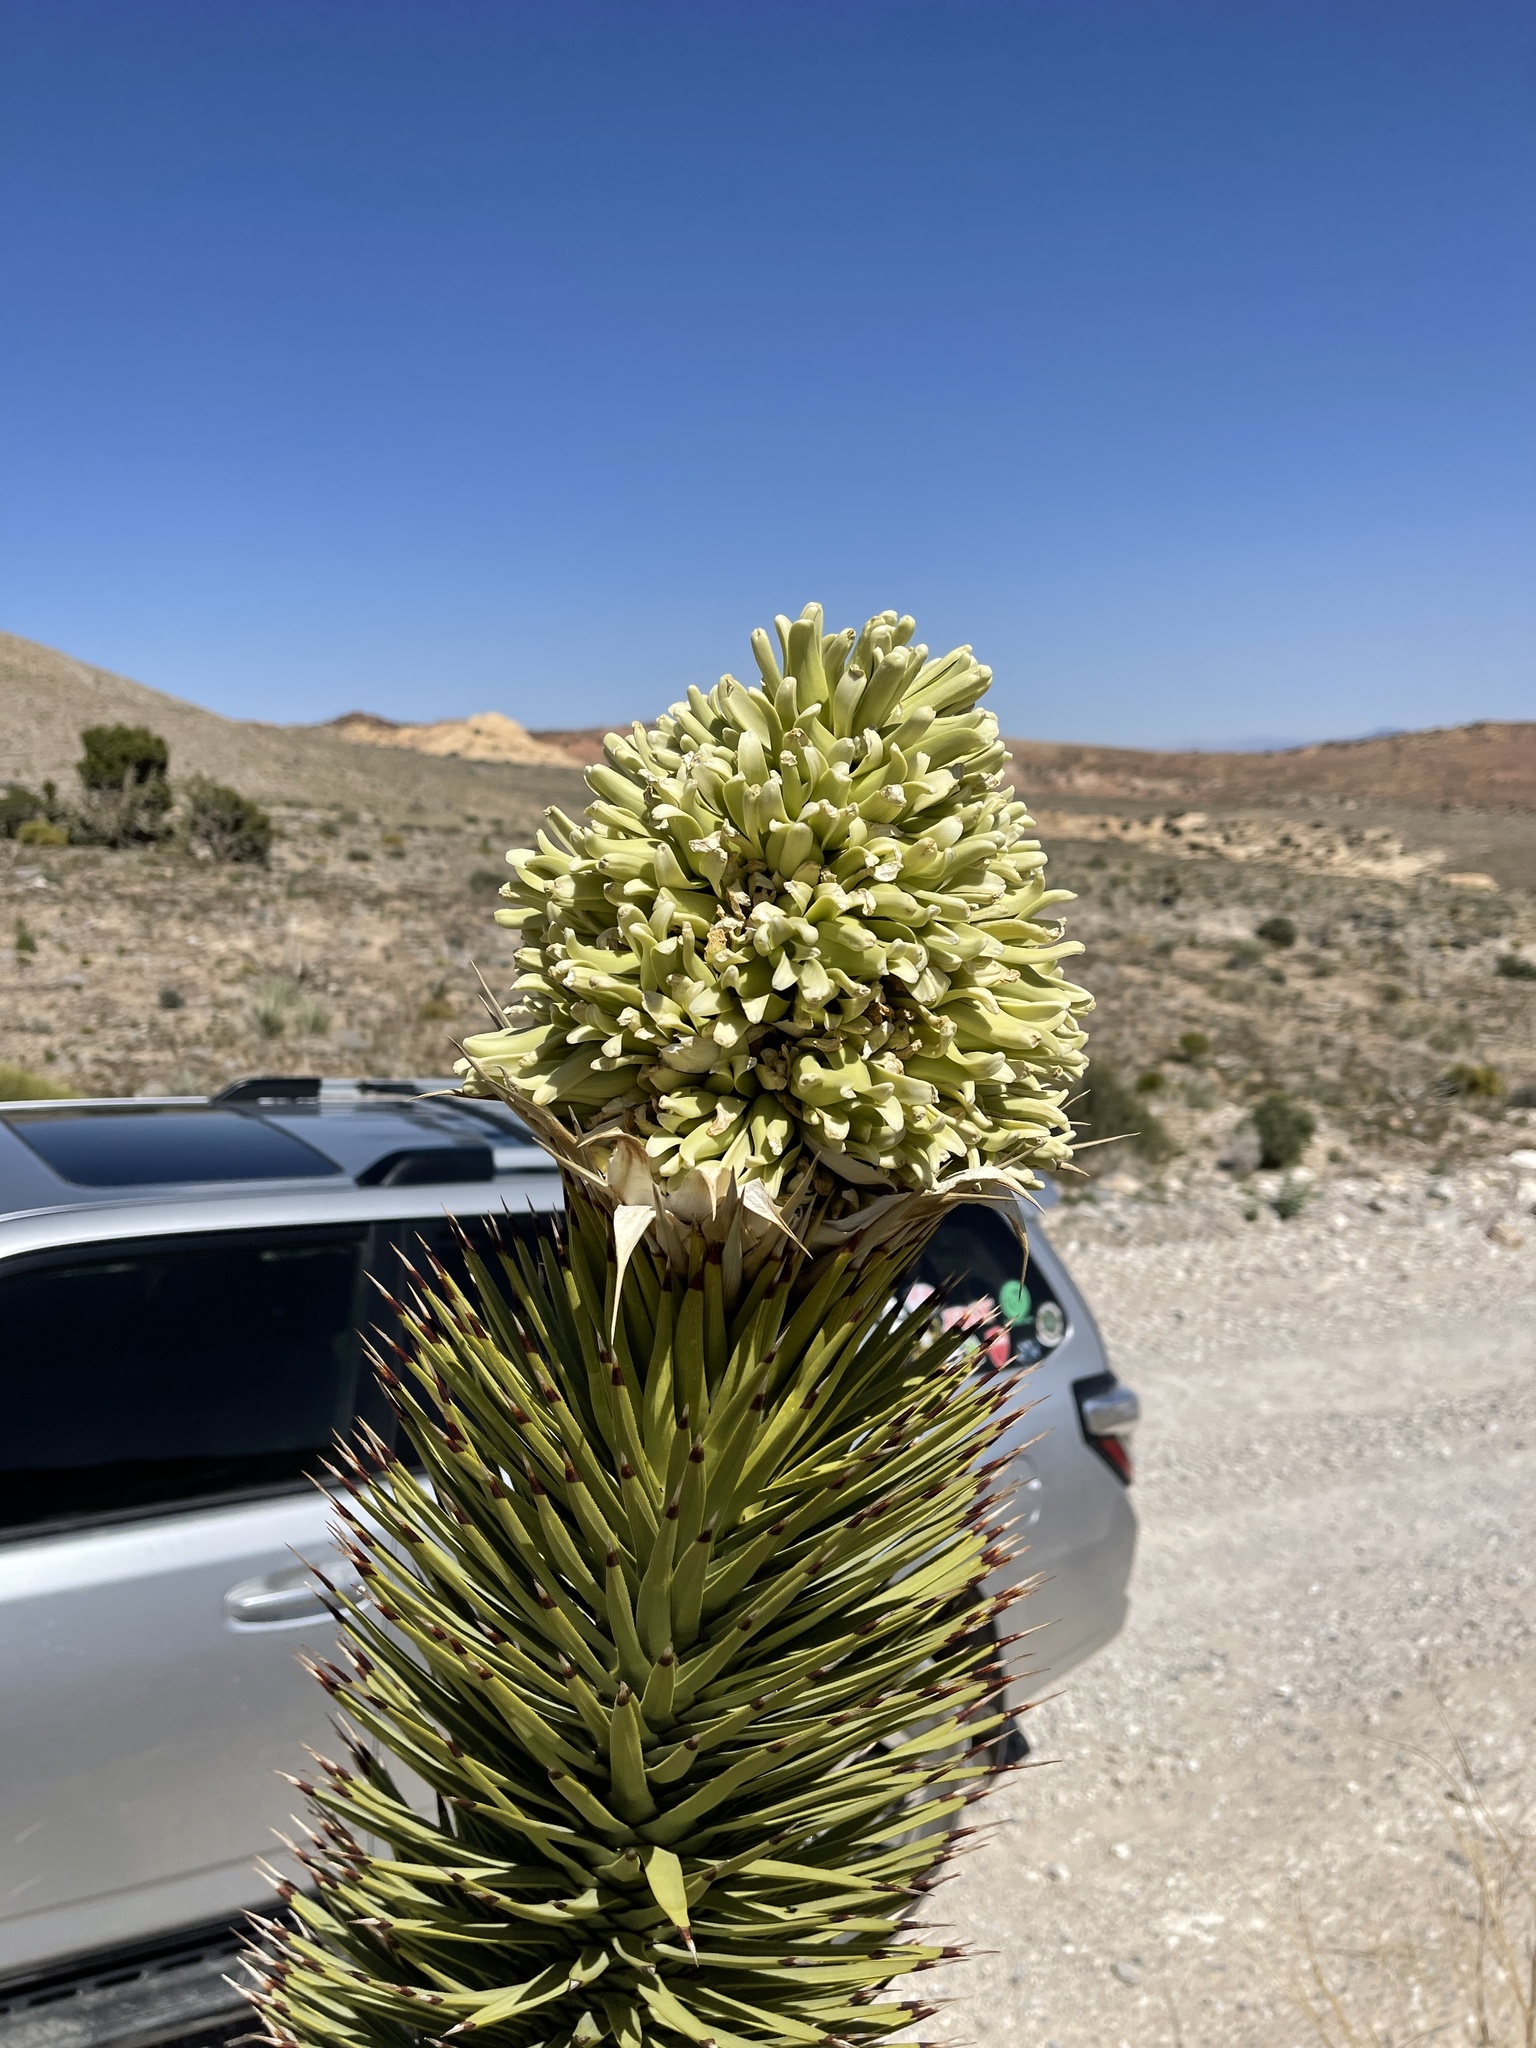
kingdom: Plantae
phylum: Tracheophyta
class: Liliopsida
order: Asparagales
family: Asparagaceae
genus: Yucca
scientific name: Yucca brevifolia
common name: Joshua tree
